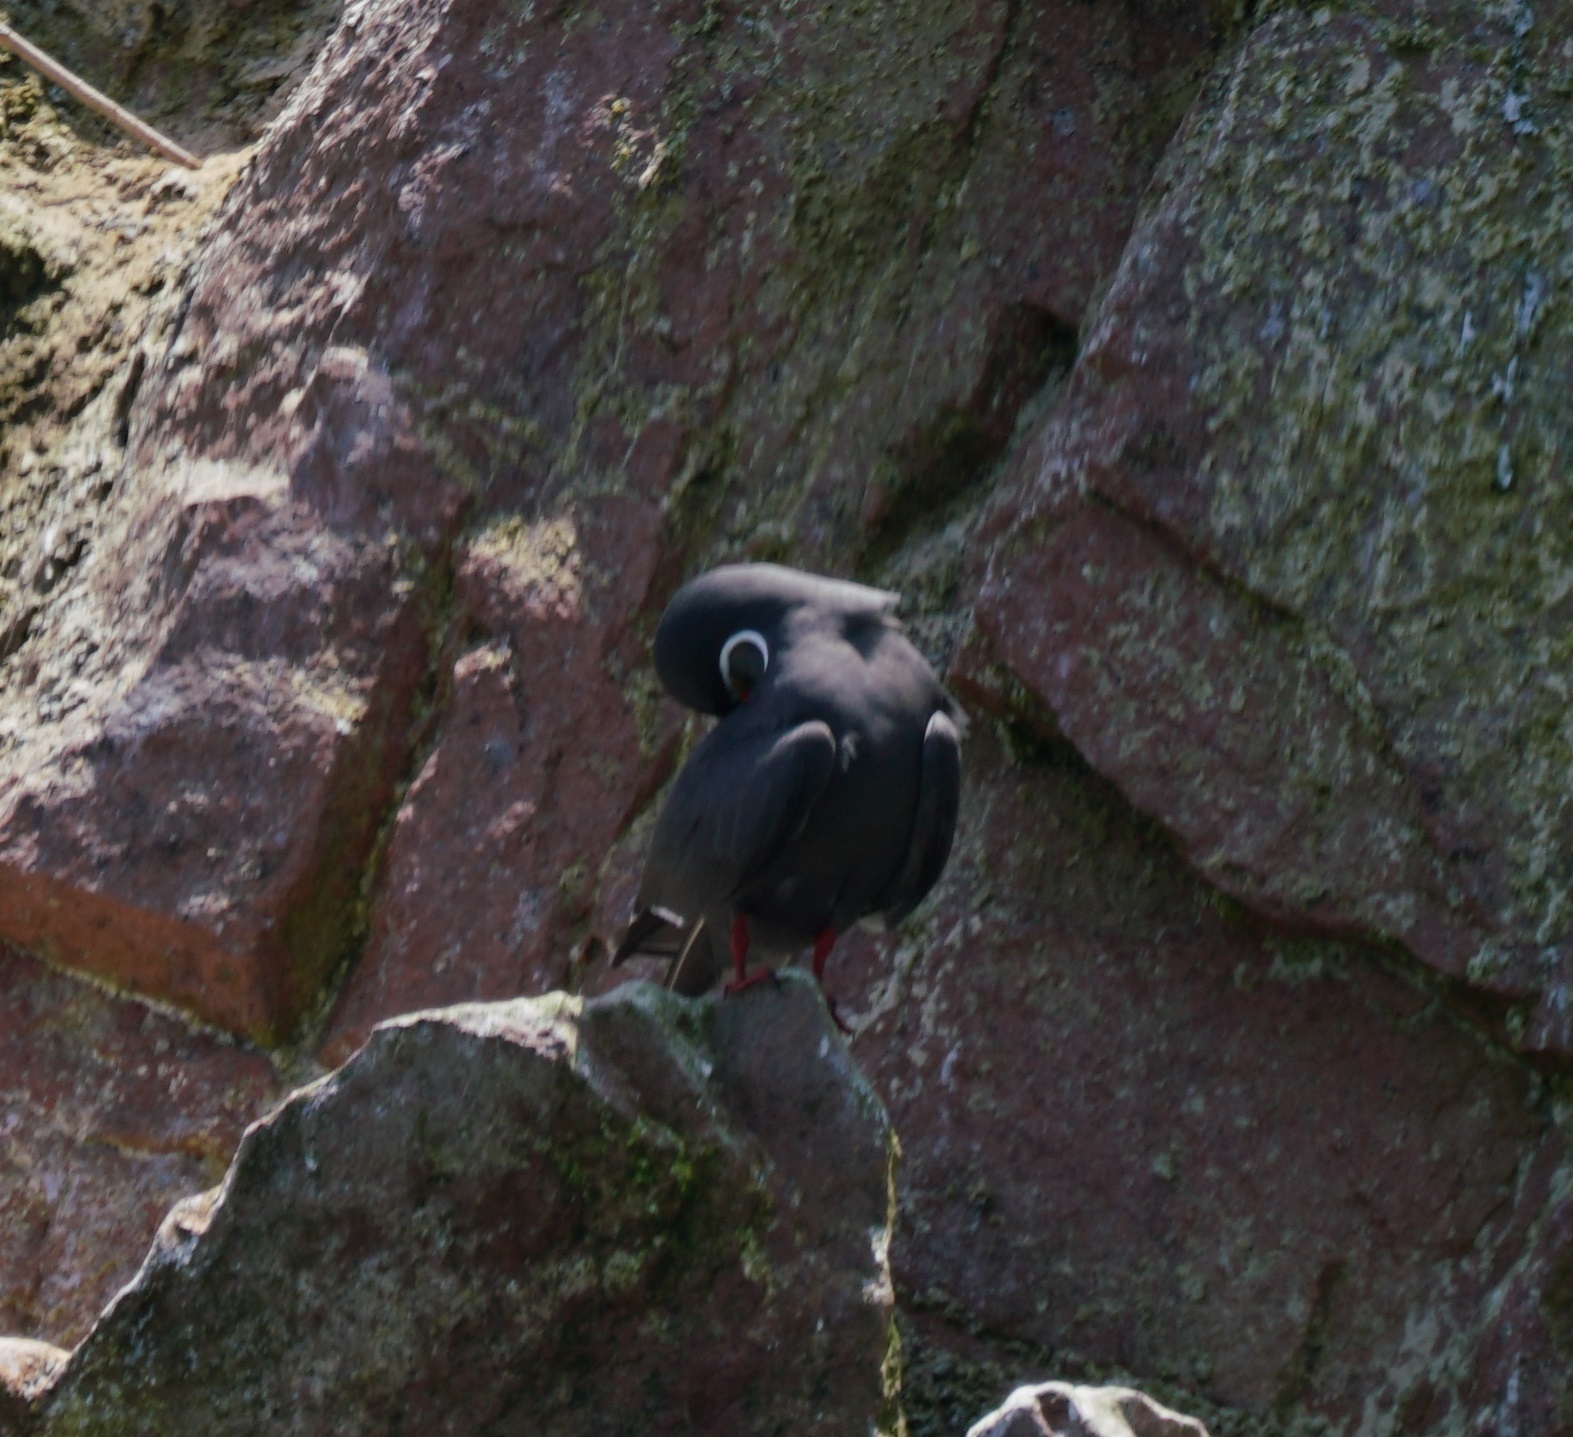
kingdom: Animalia
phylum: Chordata
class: Aves
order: Charadriiformes
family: Laridae
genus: Larosterna
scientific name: Larosterna inca
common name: Inca tern
